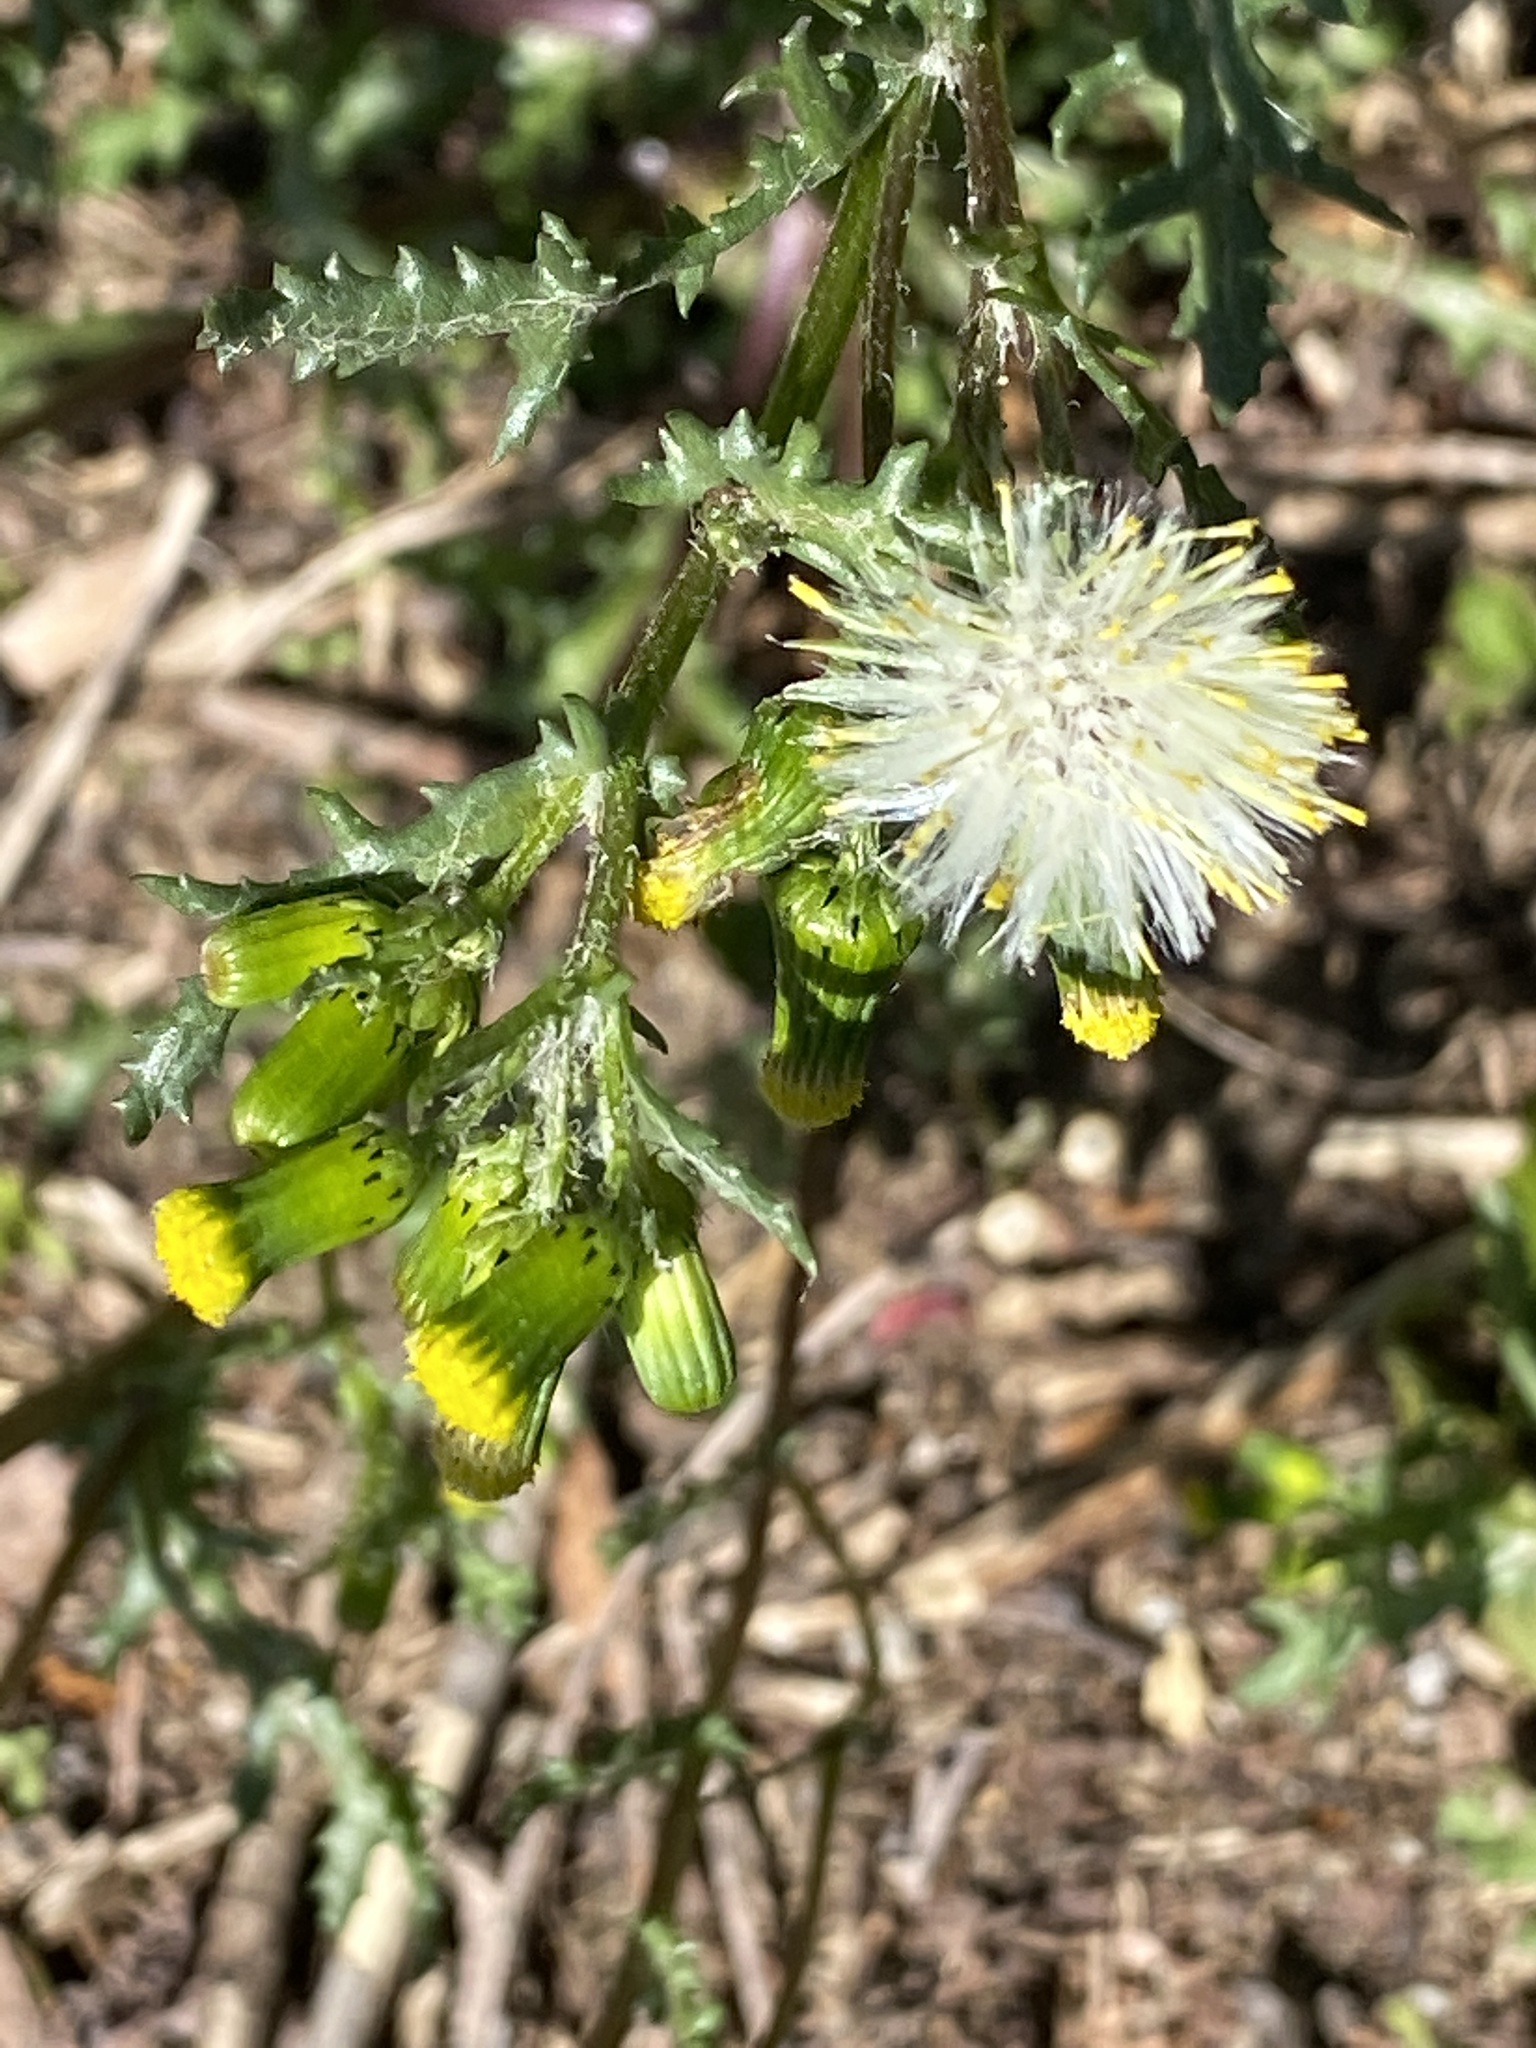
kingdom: Plantae
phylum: Tracheophyta
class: Magnoliopsida
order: Asterales
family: Asteraceae
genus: Senecio
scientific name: Senecio vulgaris
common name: Old-man-in-the-spring
